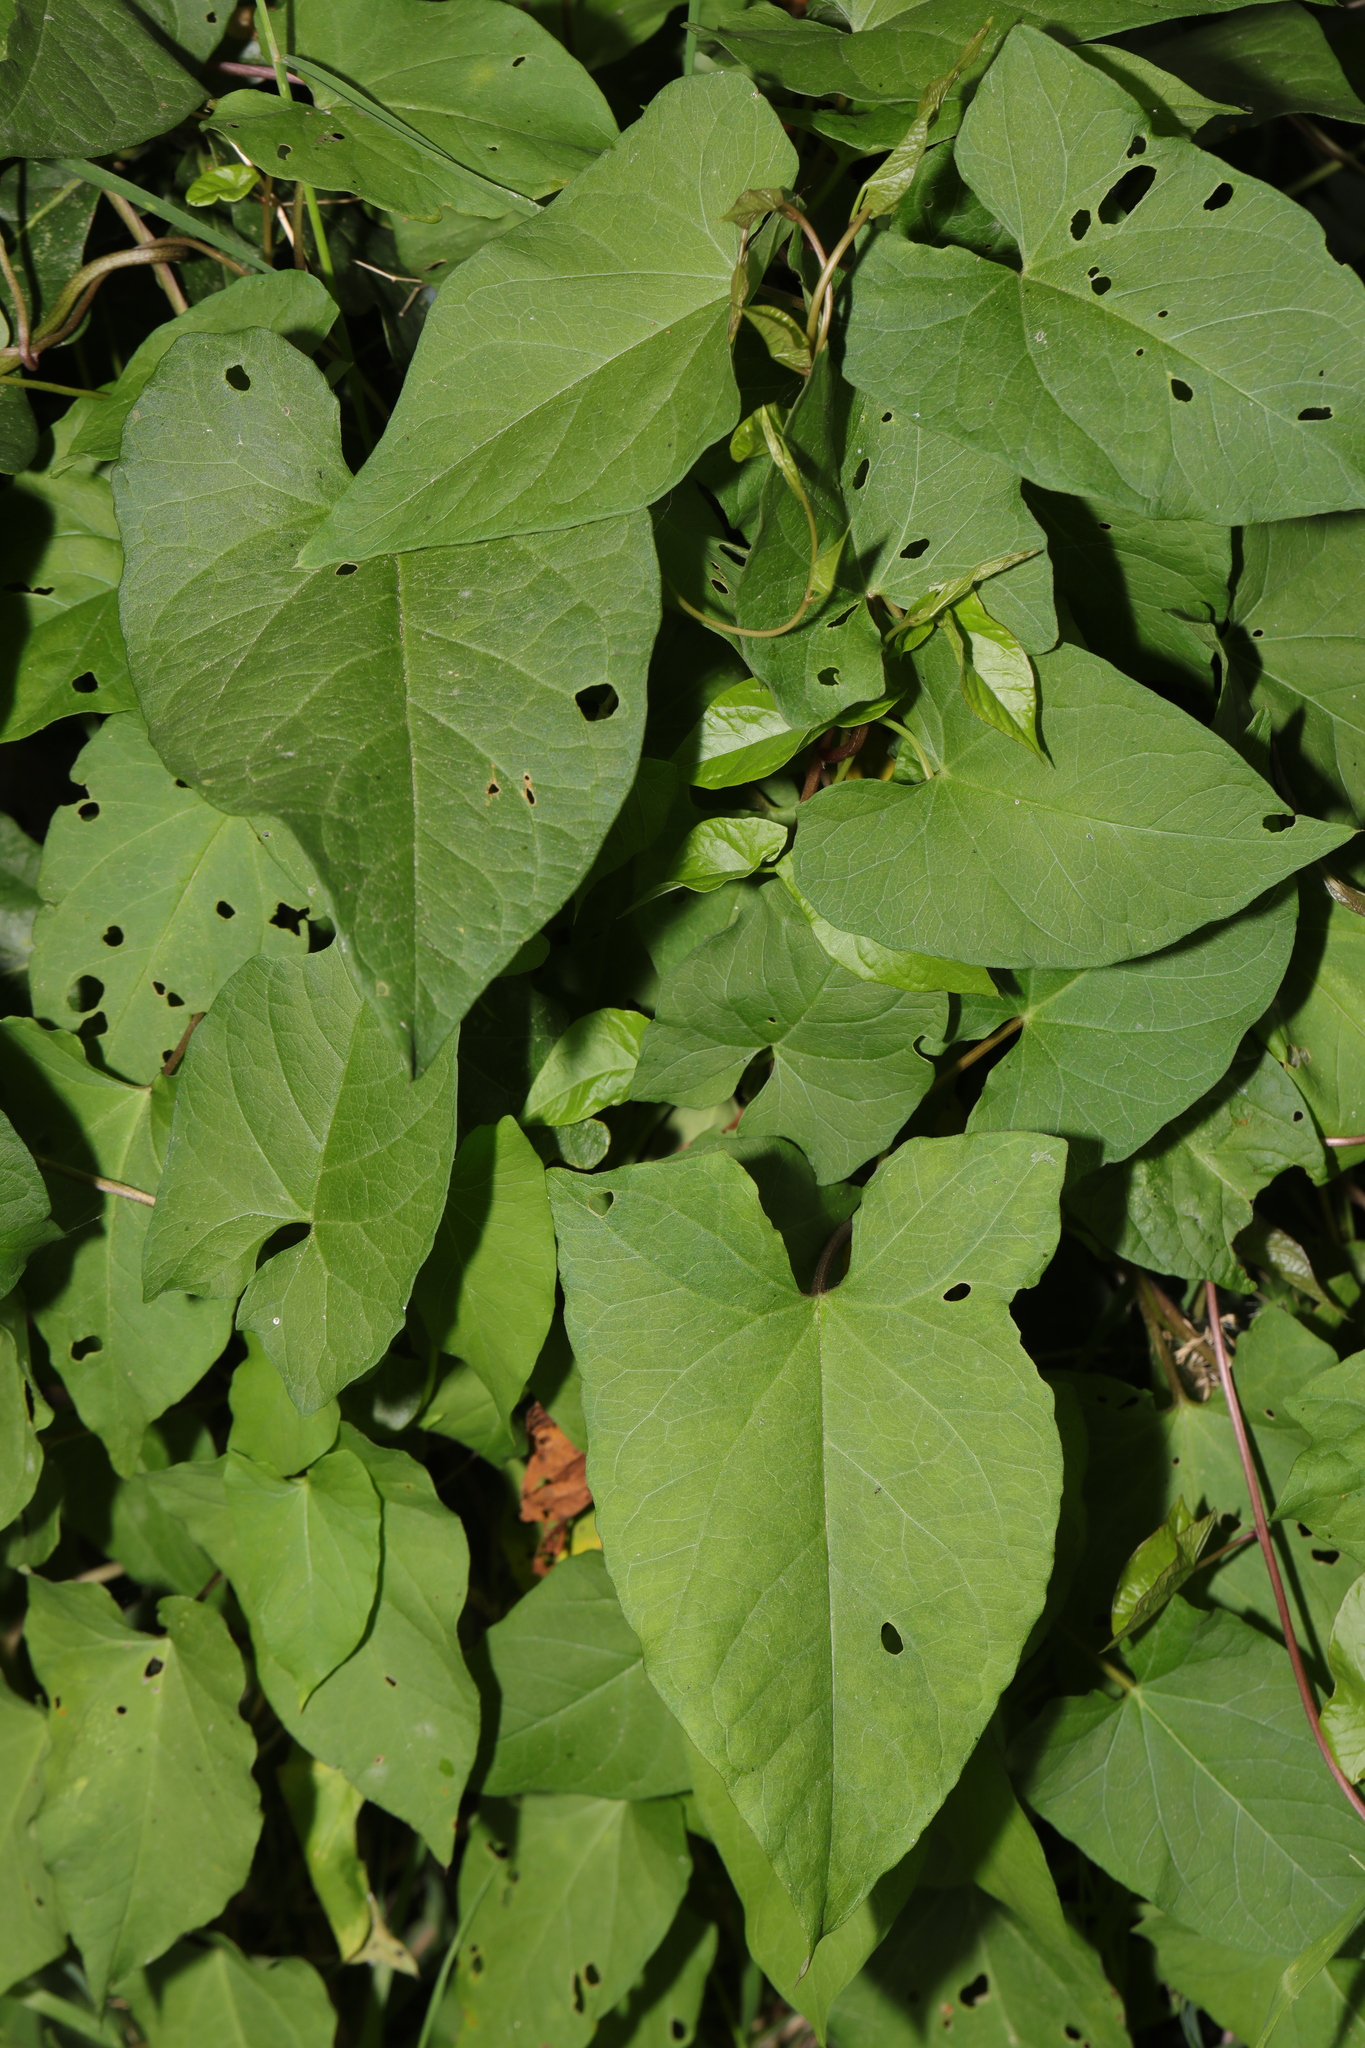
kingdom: Plantae
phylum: Tracheophyta
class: Magnoliopsida
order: Solanales
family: Convolvulaceae
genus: Calystegia
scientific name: Calystegia silvatica
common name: Large bindweed
